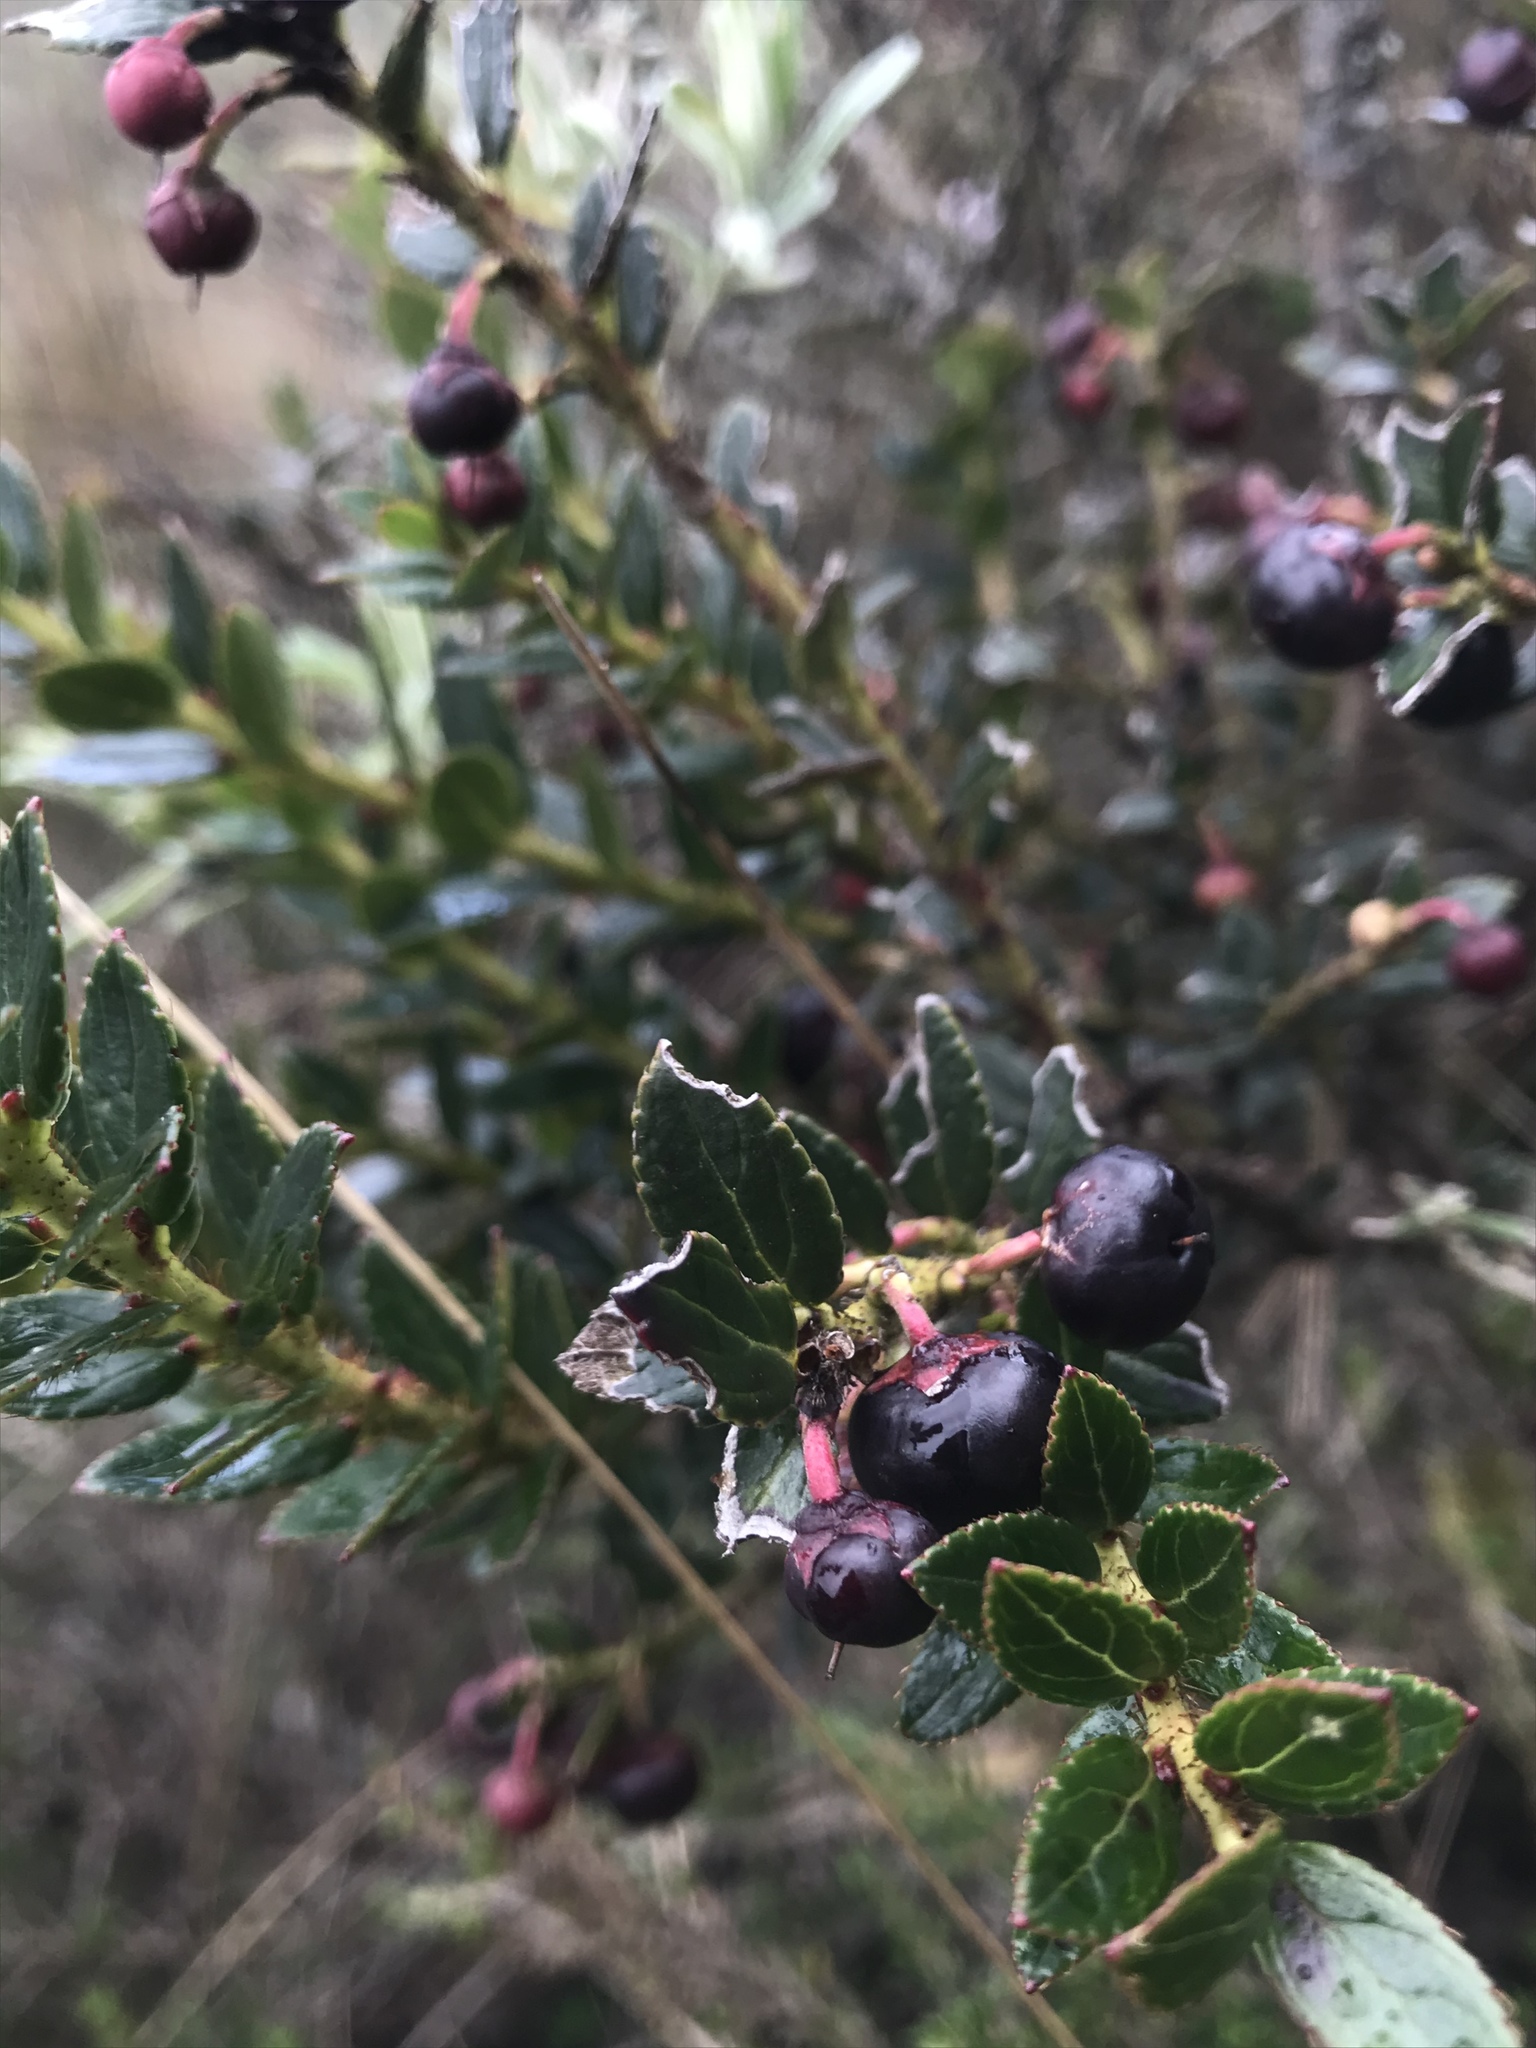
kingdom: Plantae
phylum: Tracheophyta
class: Magnoliopsida
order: Ericales
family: Ericaceae
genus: Gaultheria
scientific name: Gaultheria myrsinoides
